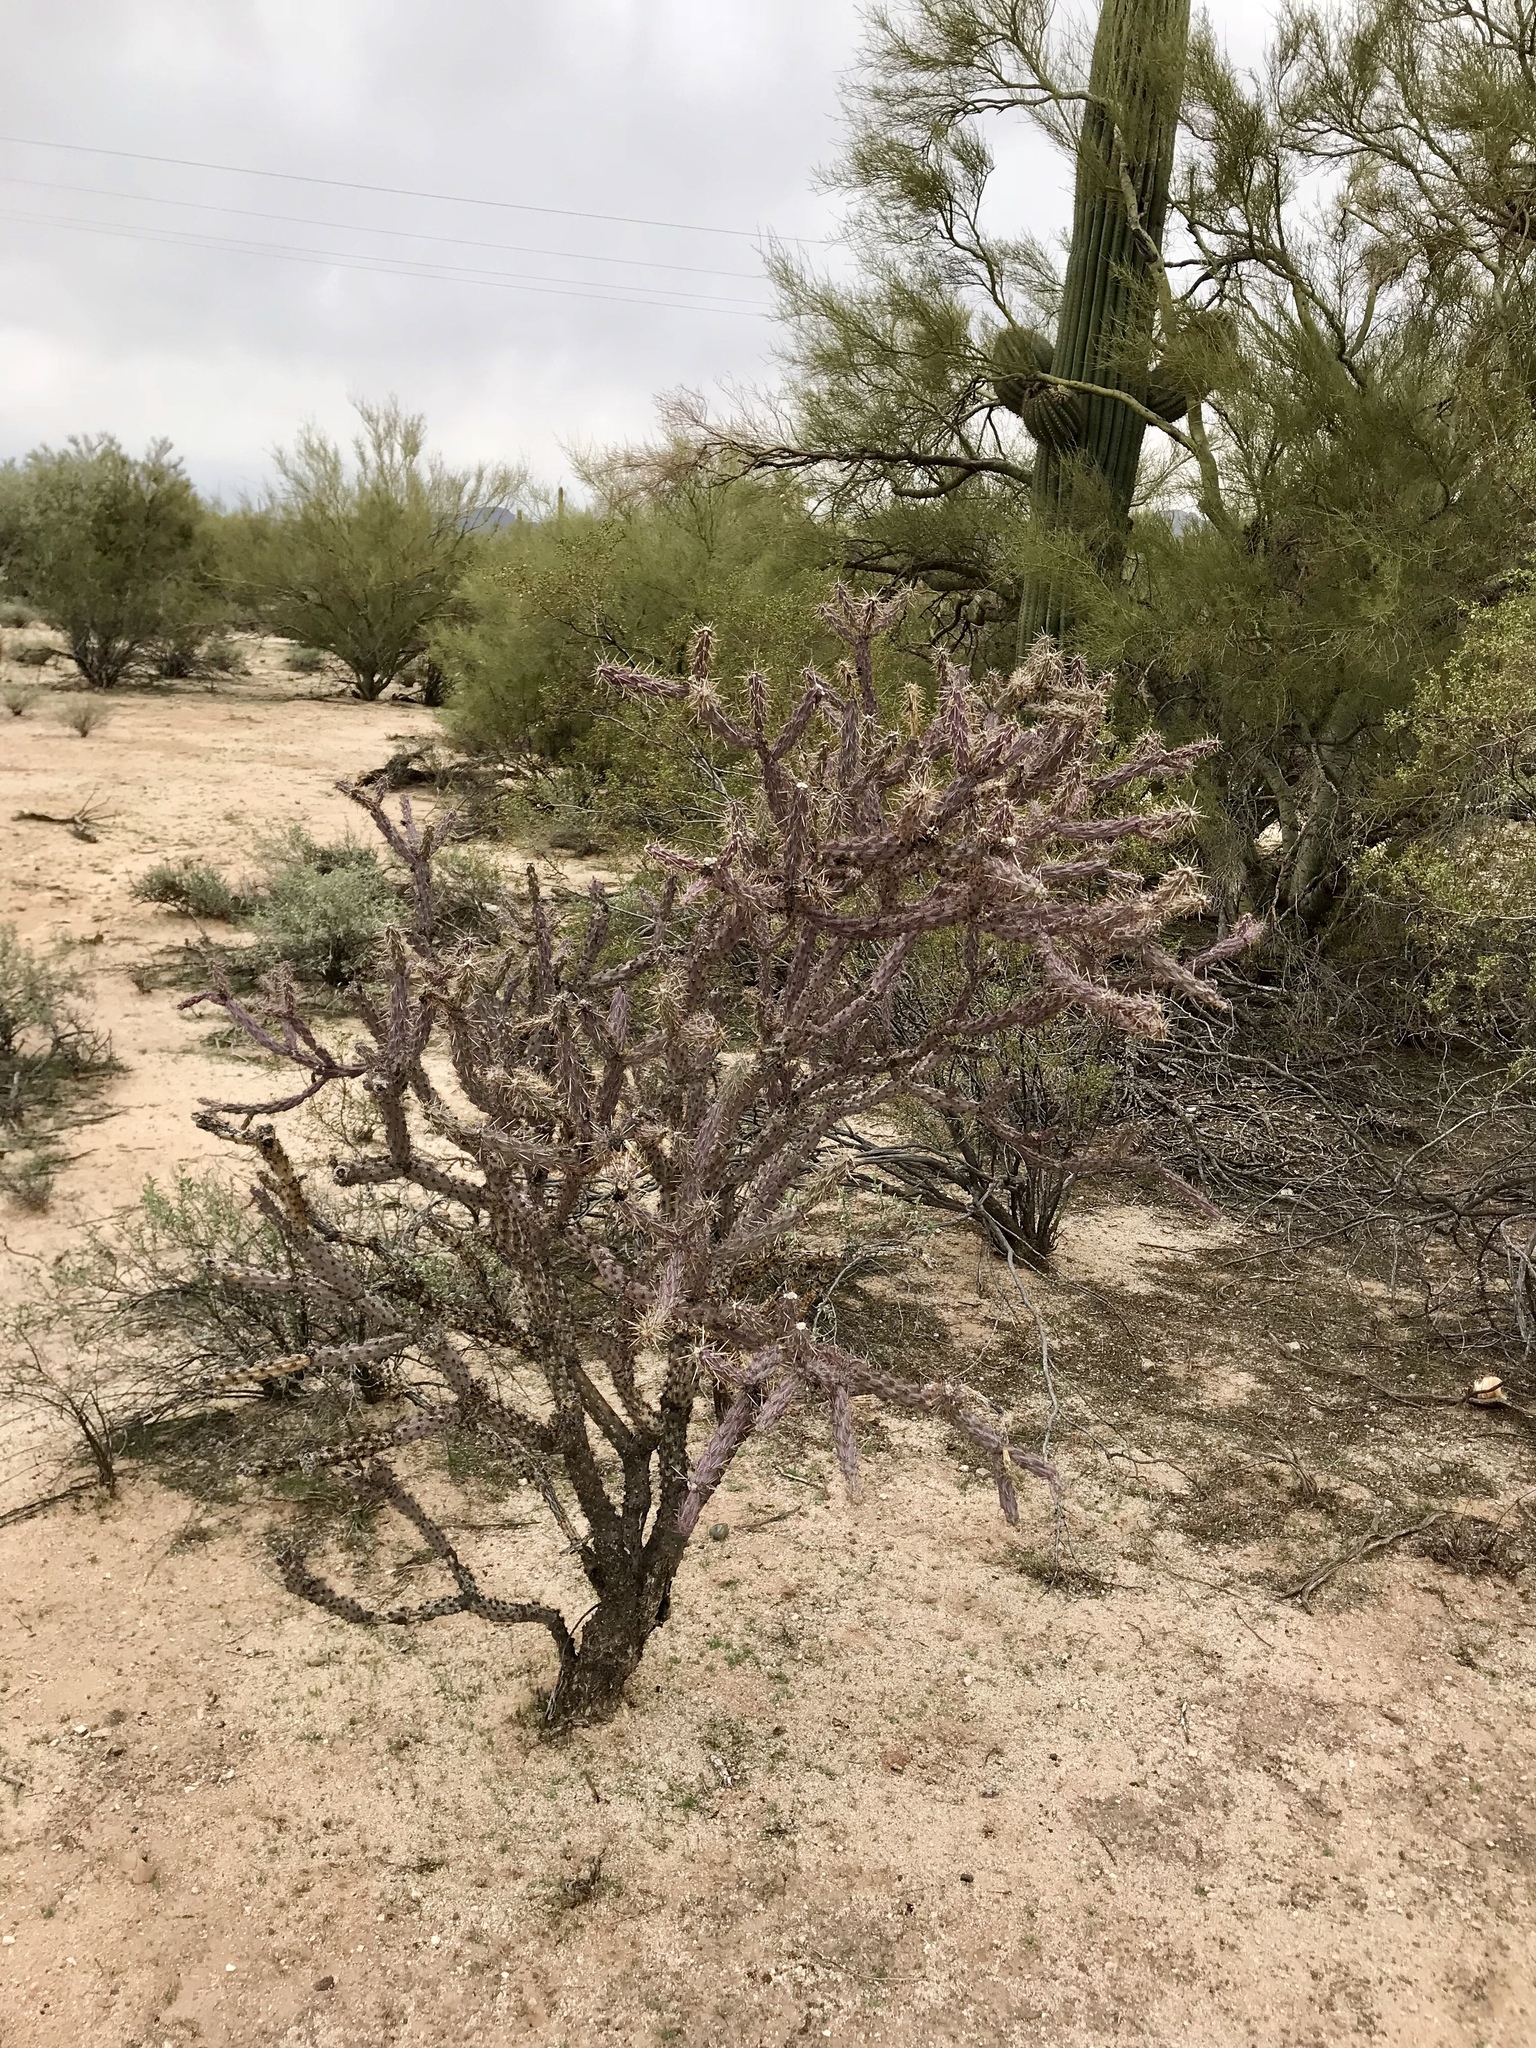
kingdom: Plantae
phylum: Tracheophyta
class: Magnoliopsida
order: Caryophyllales
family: Cactaceae
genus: Cylindropuntia
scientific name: Cylindropuntia thurberi
